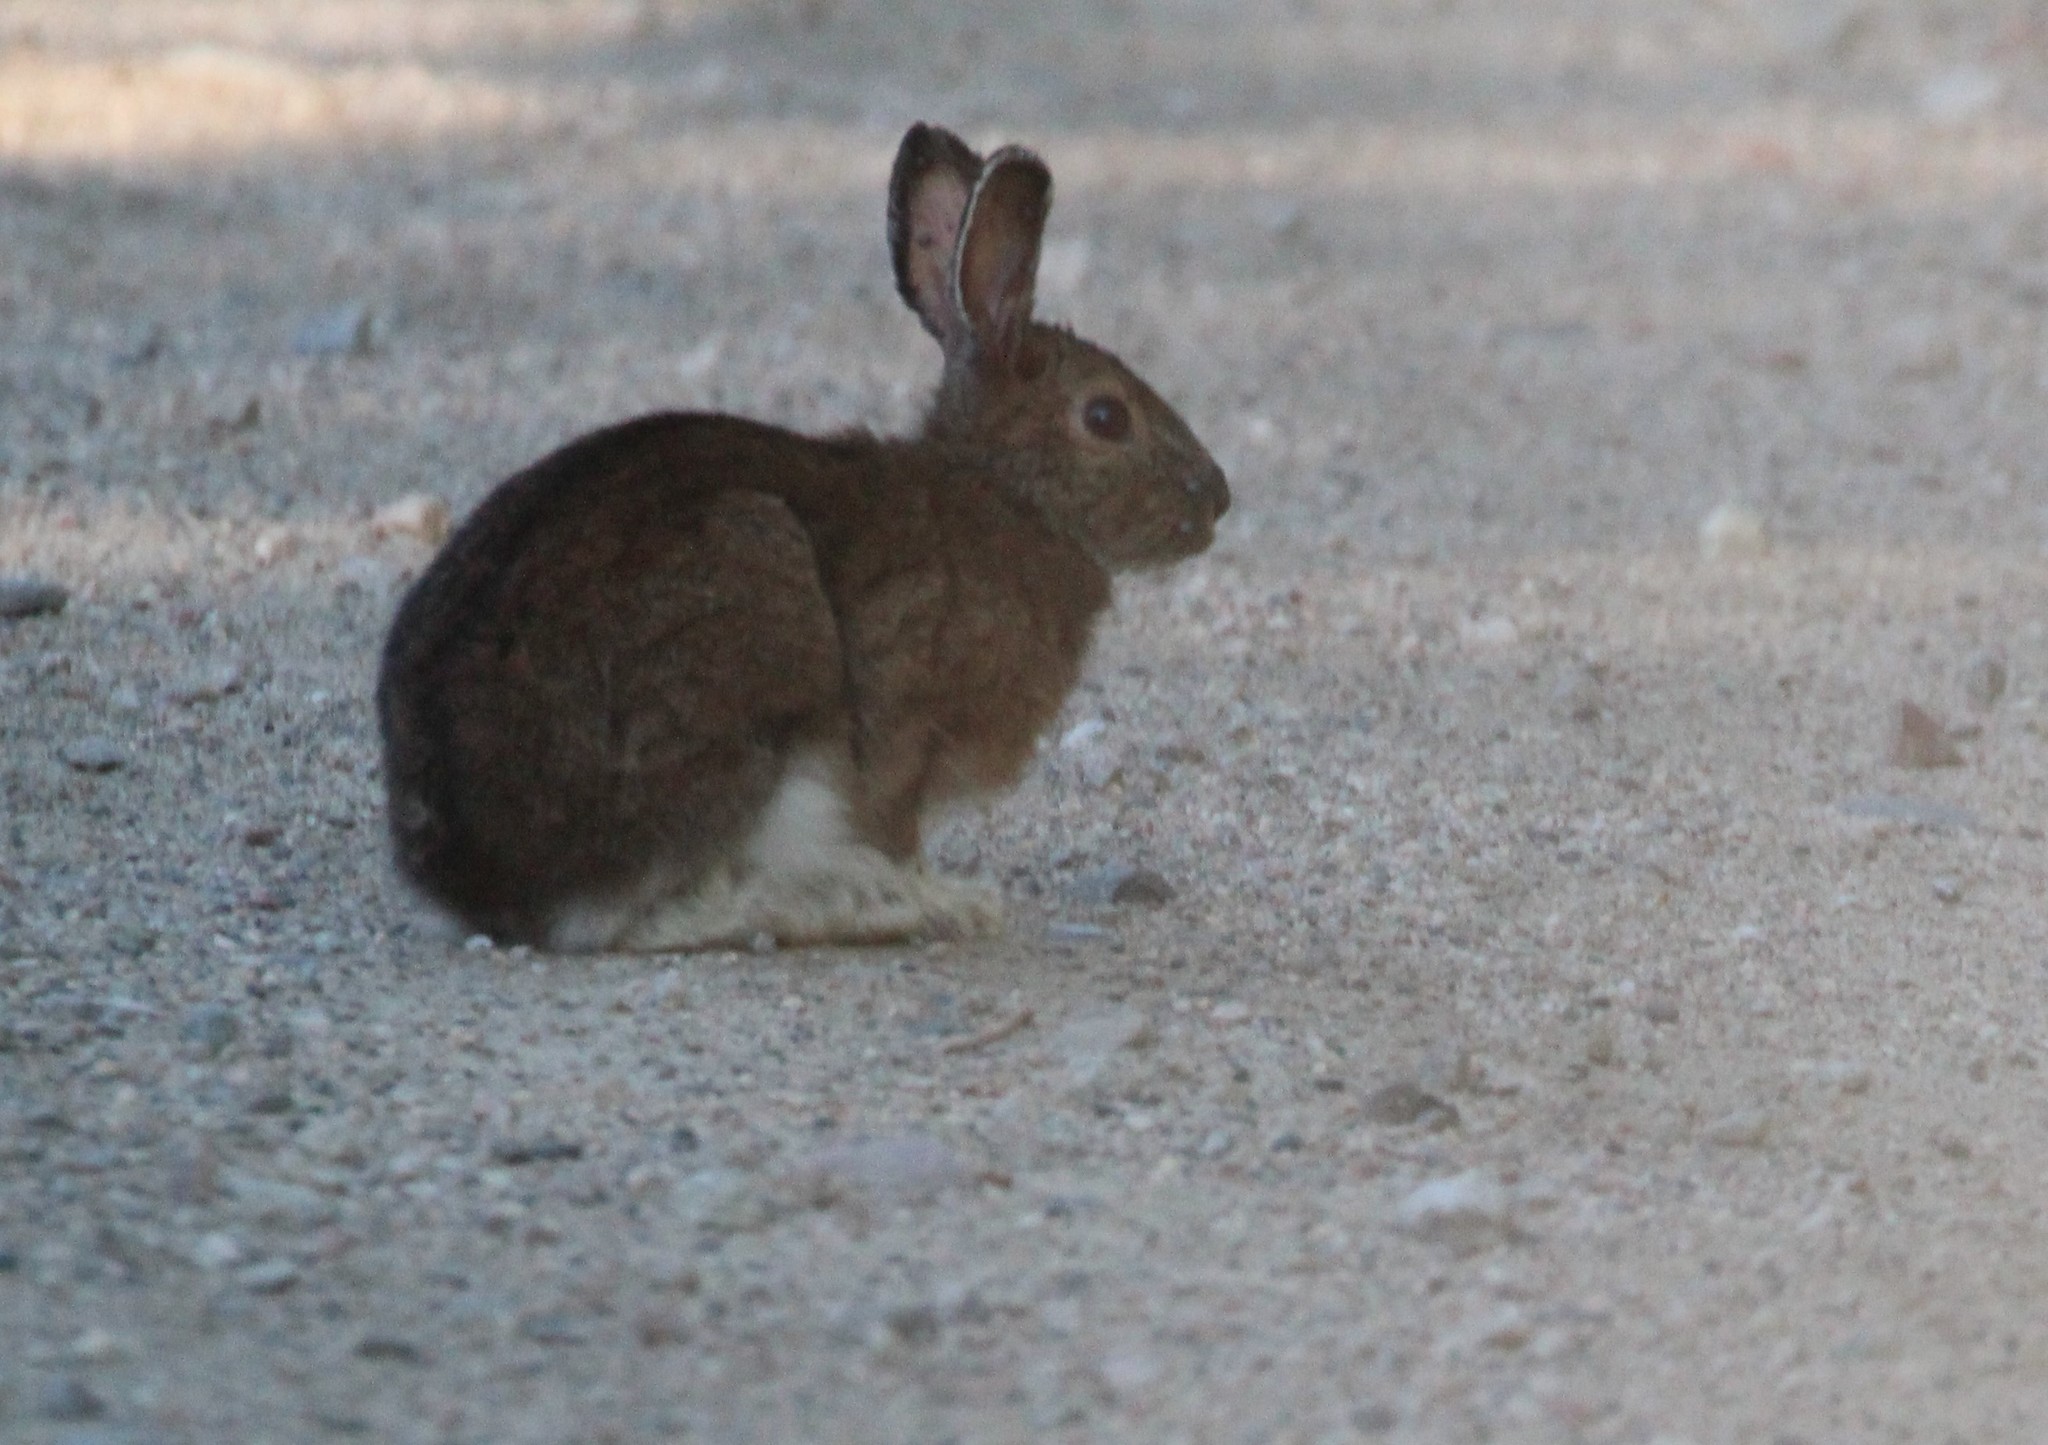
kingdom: Animalia
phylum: Chordata
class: Mammalia
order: Lagomorpha
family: Leporidae
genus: Lepus
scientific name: Lepus americanus
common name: Snowshoe hare
